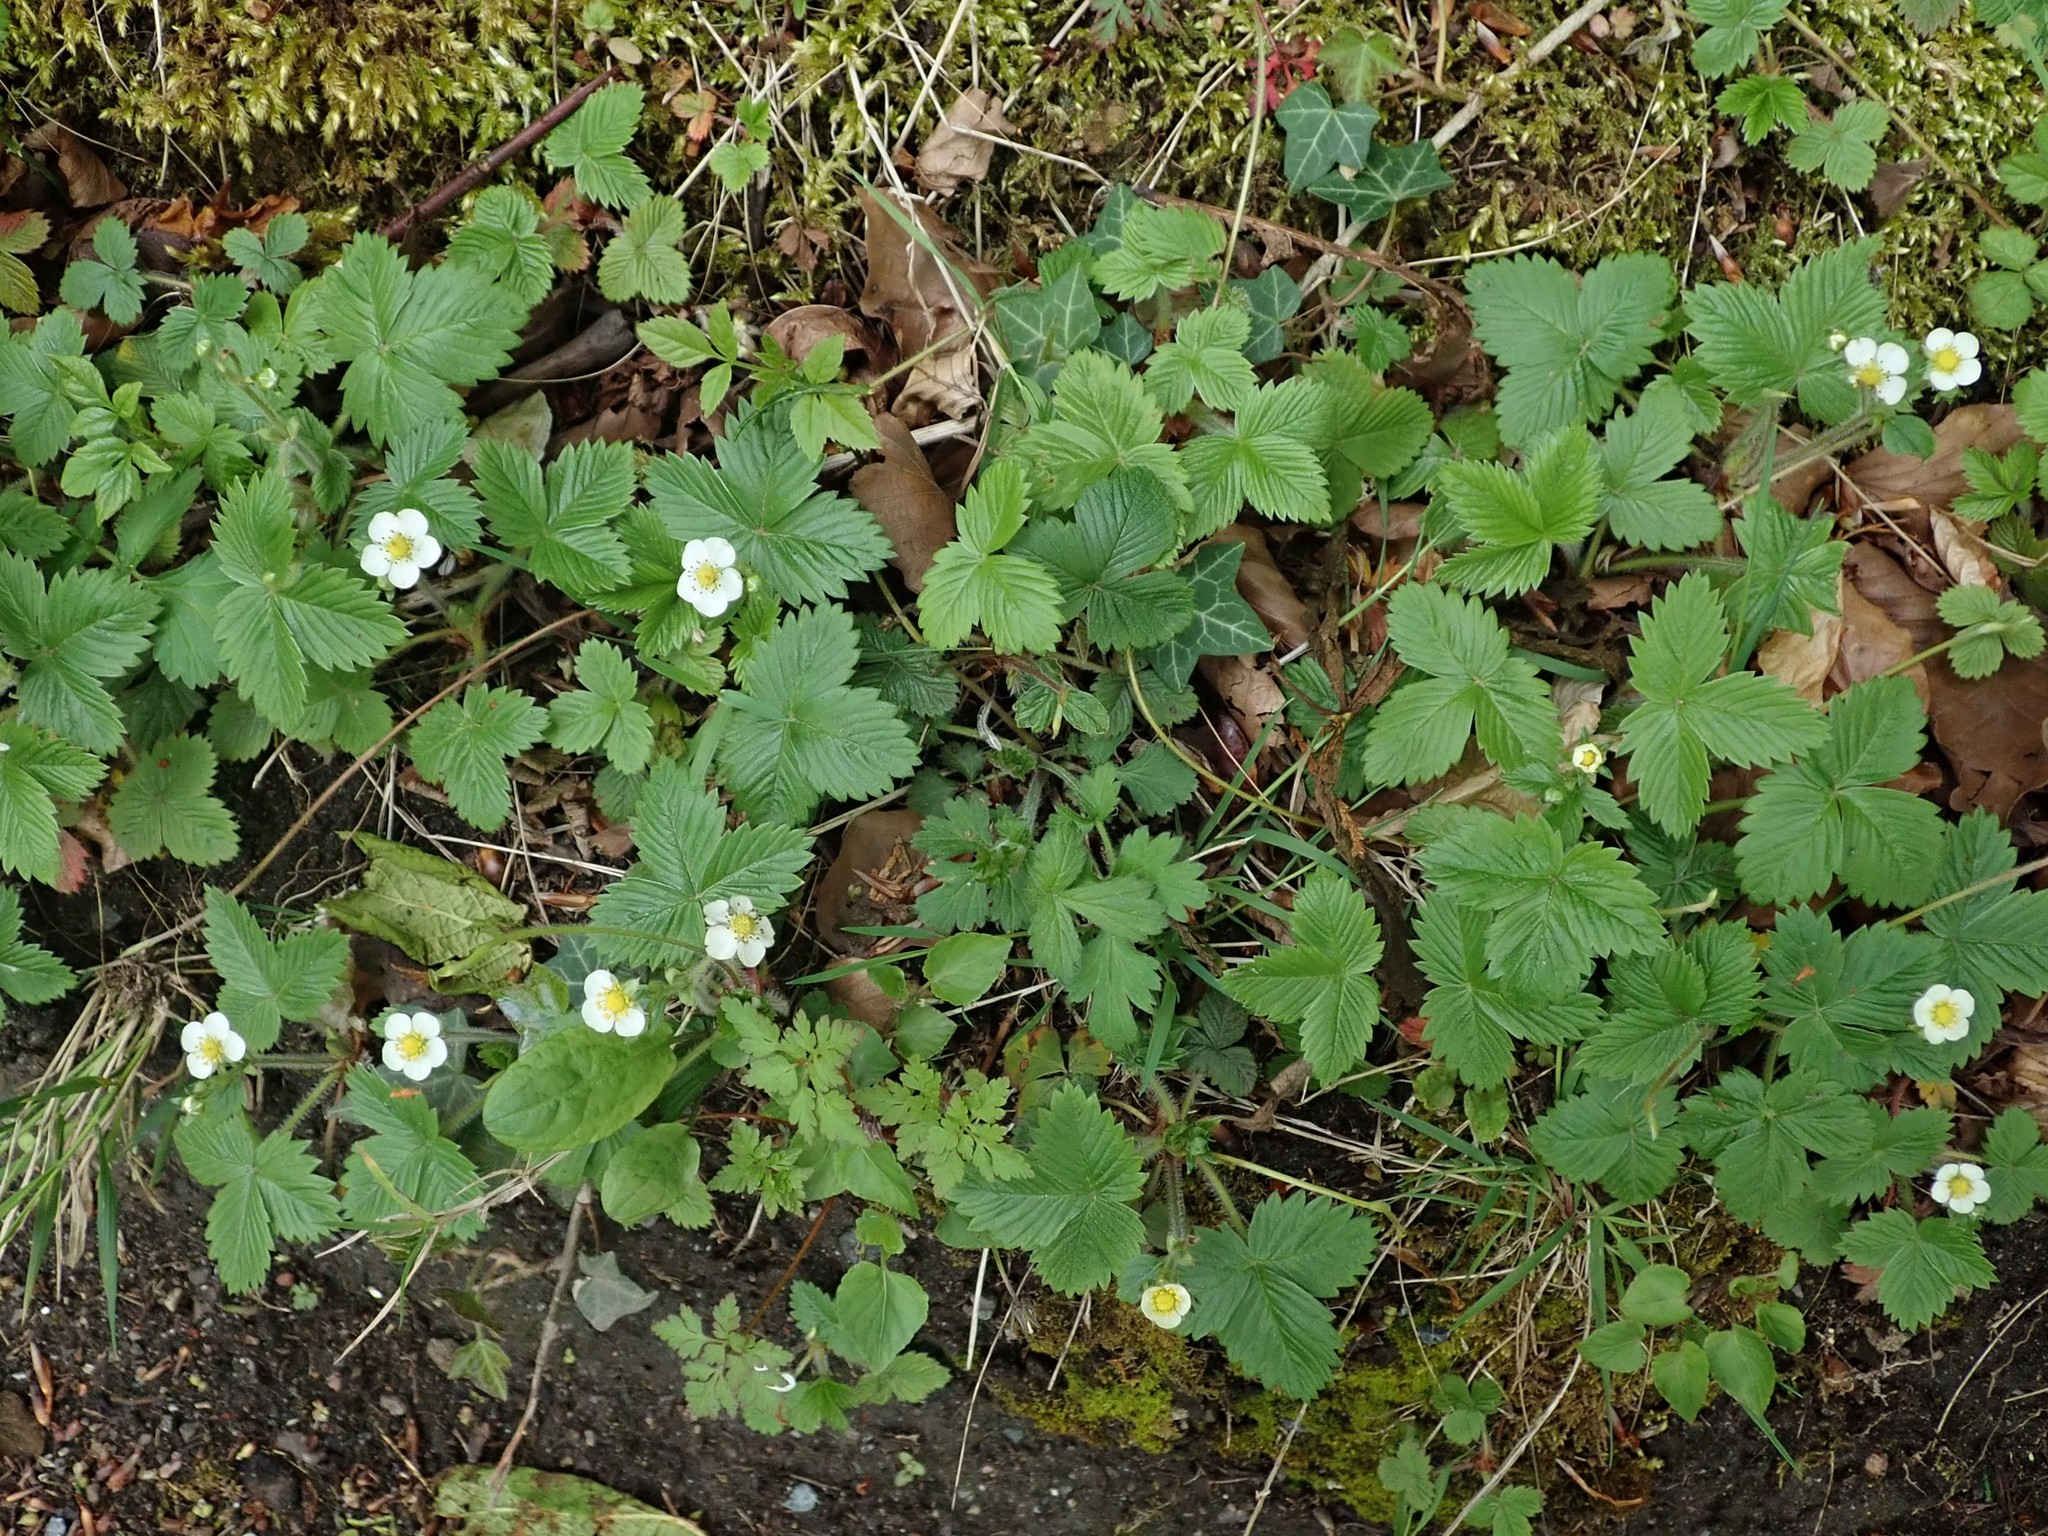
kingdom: Plantae
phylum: Tracheophyta
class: Magnoliopsida
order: Rosales
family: Rosaceae
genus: Fragaria
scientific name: Fragaria vesca
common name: Wild strawberry
